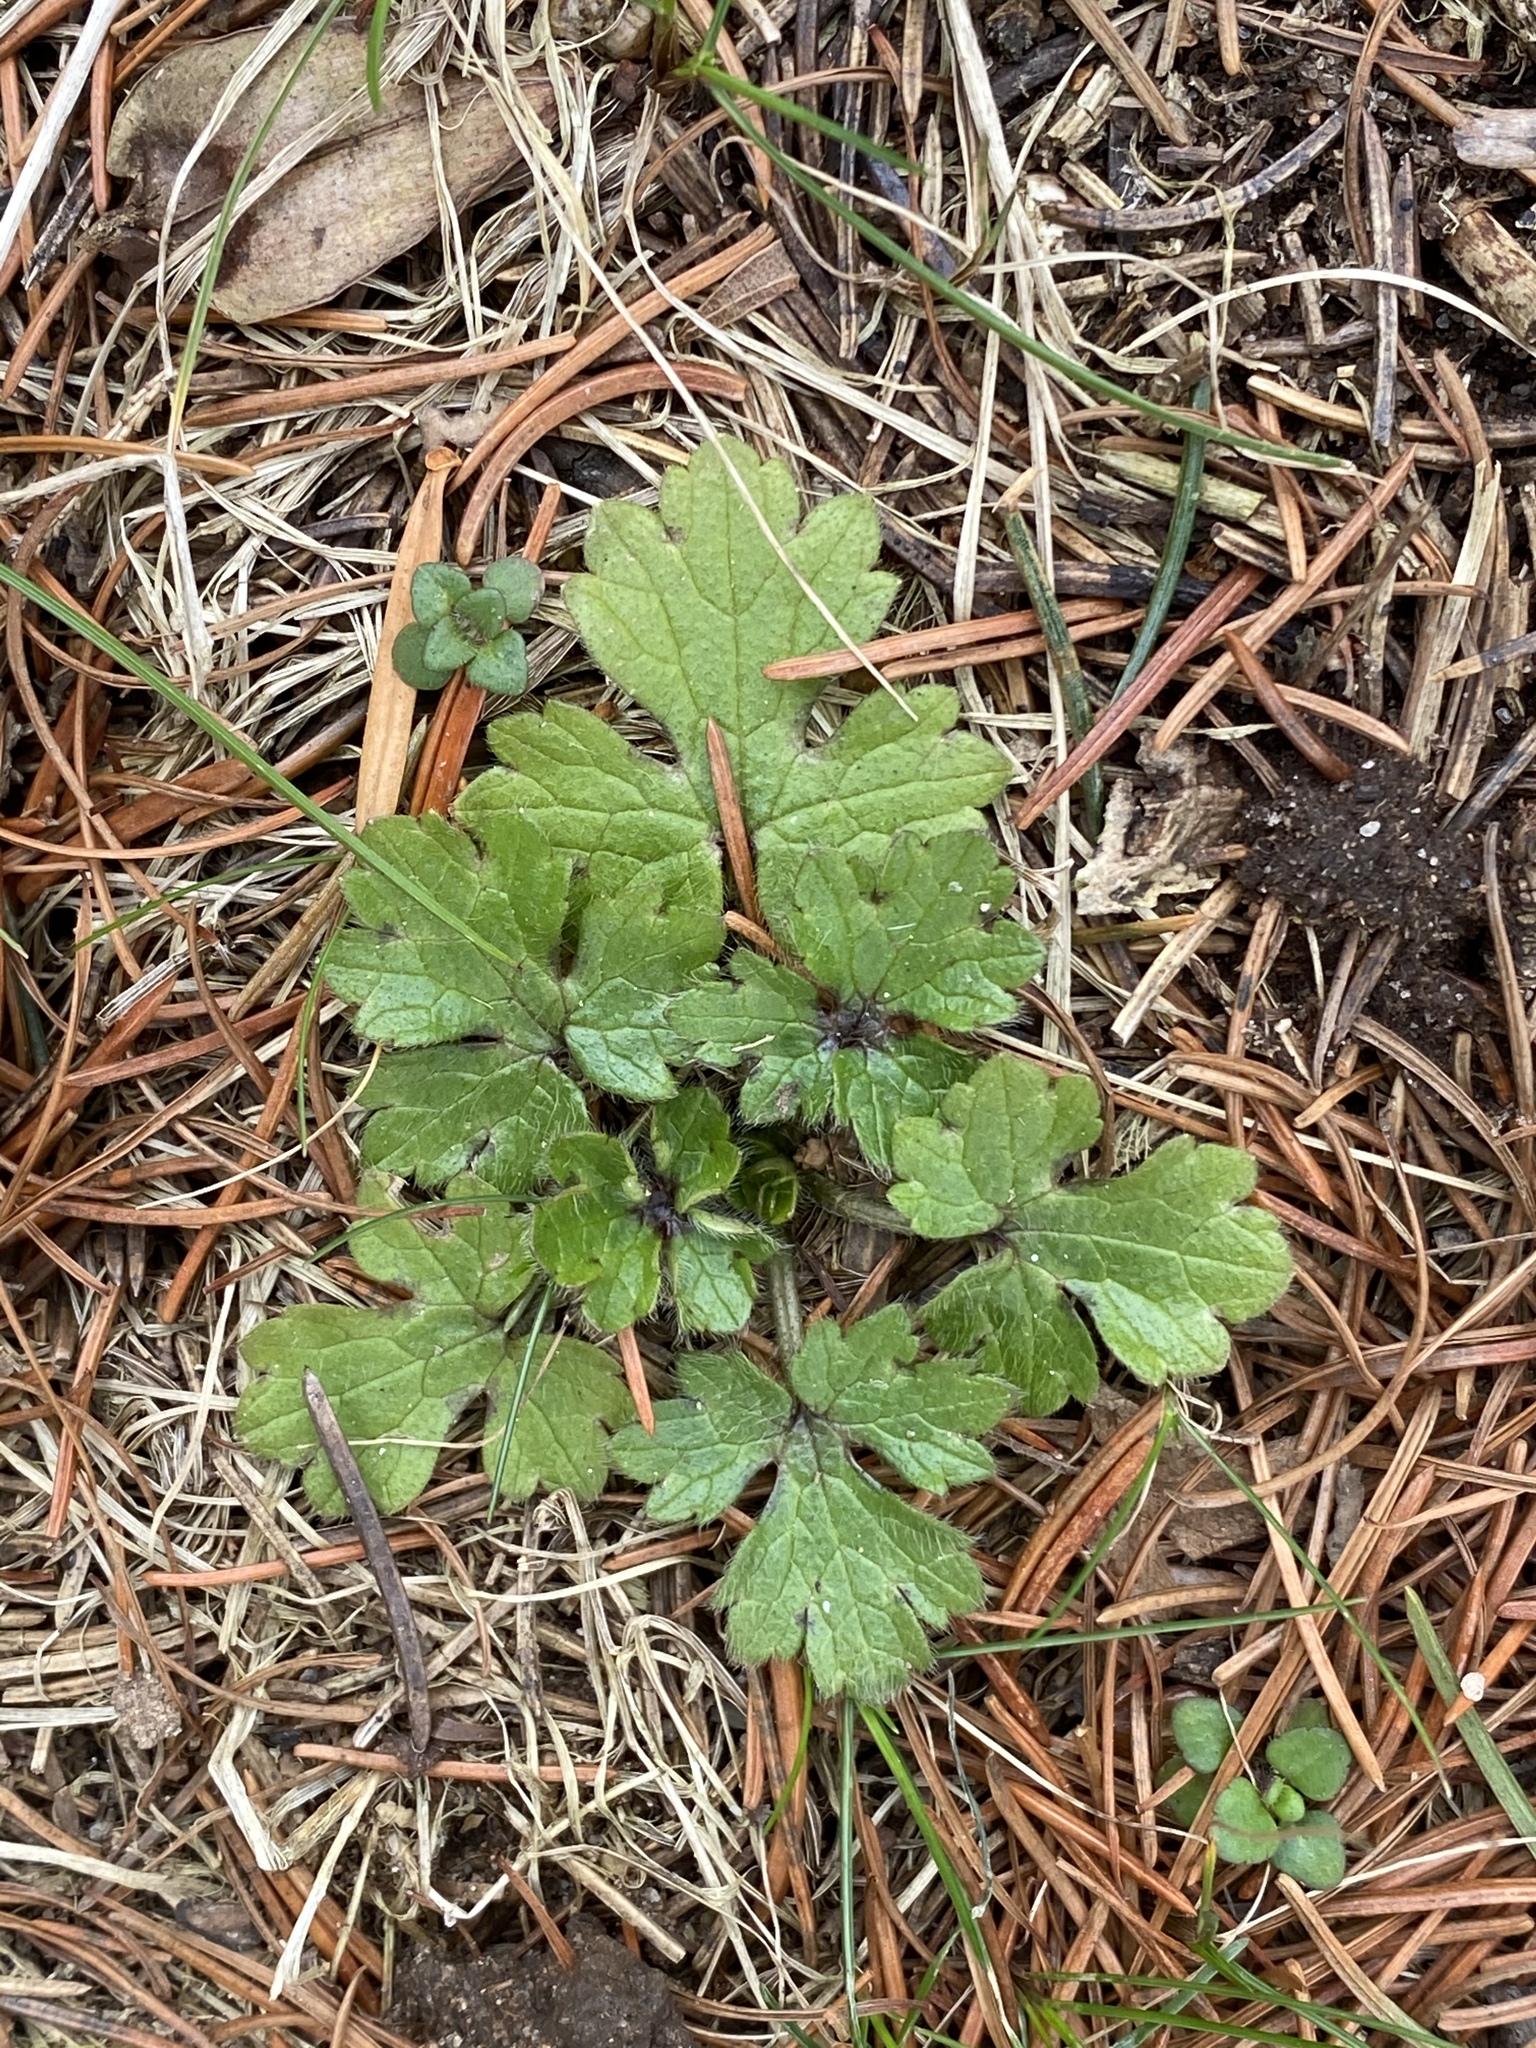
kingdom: Plantae
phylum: Tracheophyta
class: Magnoliopsida
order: Ranunculales
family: Ranunculaceae
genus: Ranunculus
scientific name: Ranunculus bulbosus
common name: Bulbous buttercup
